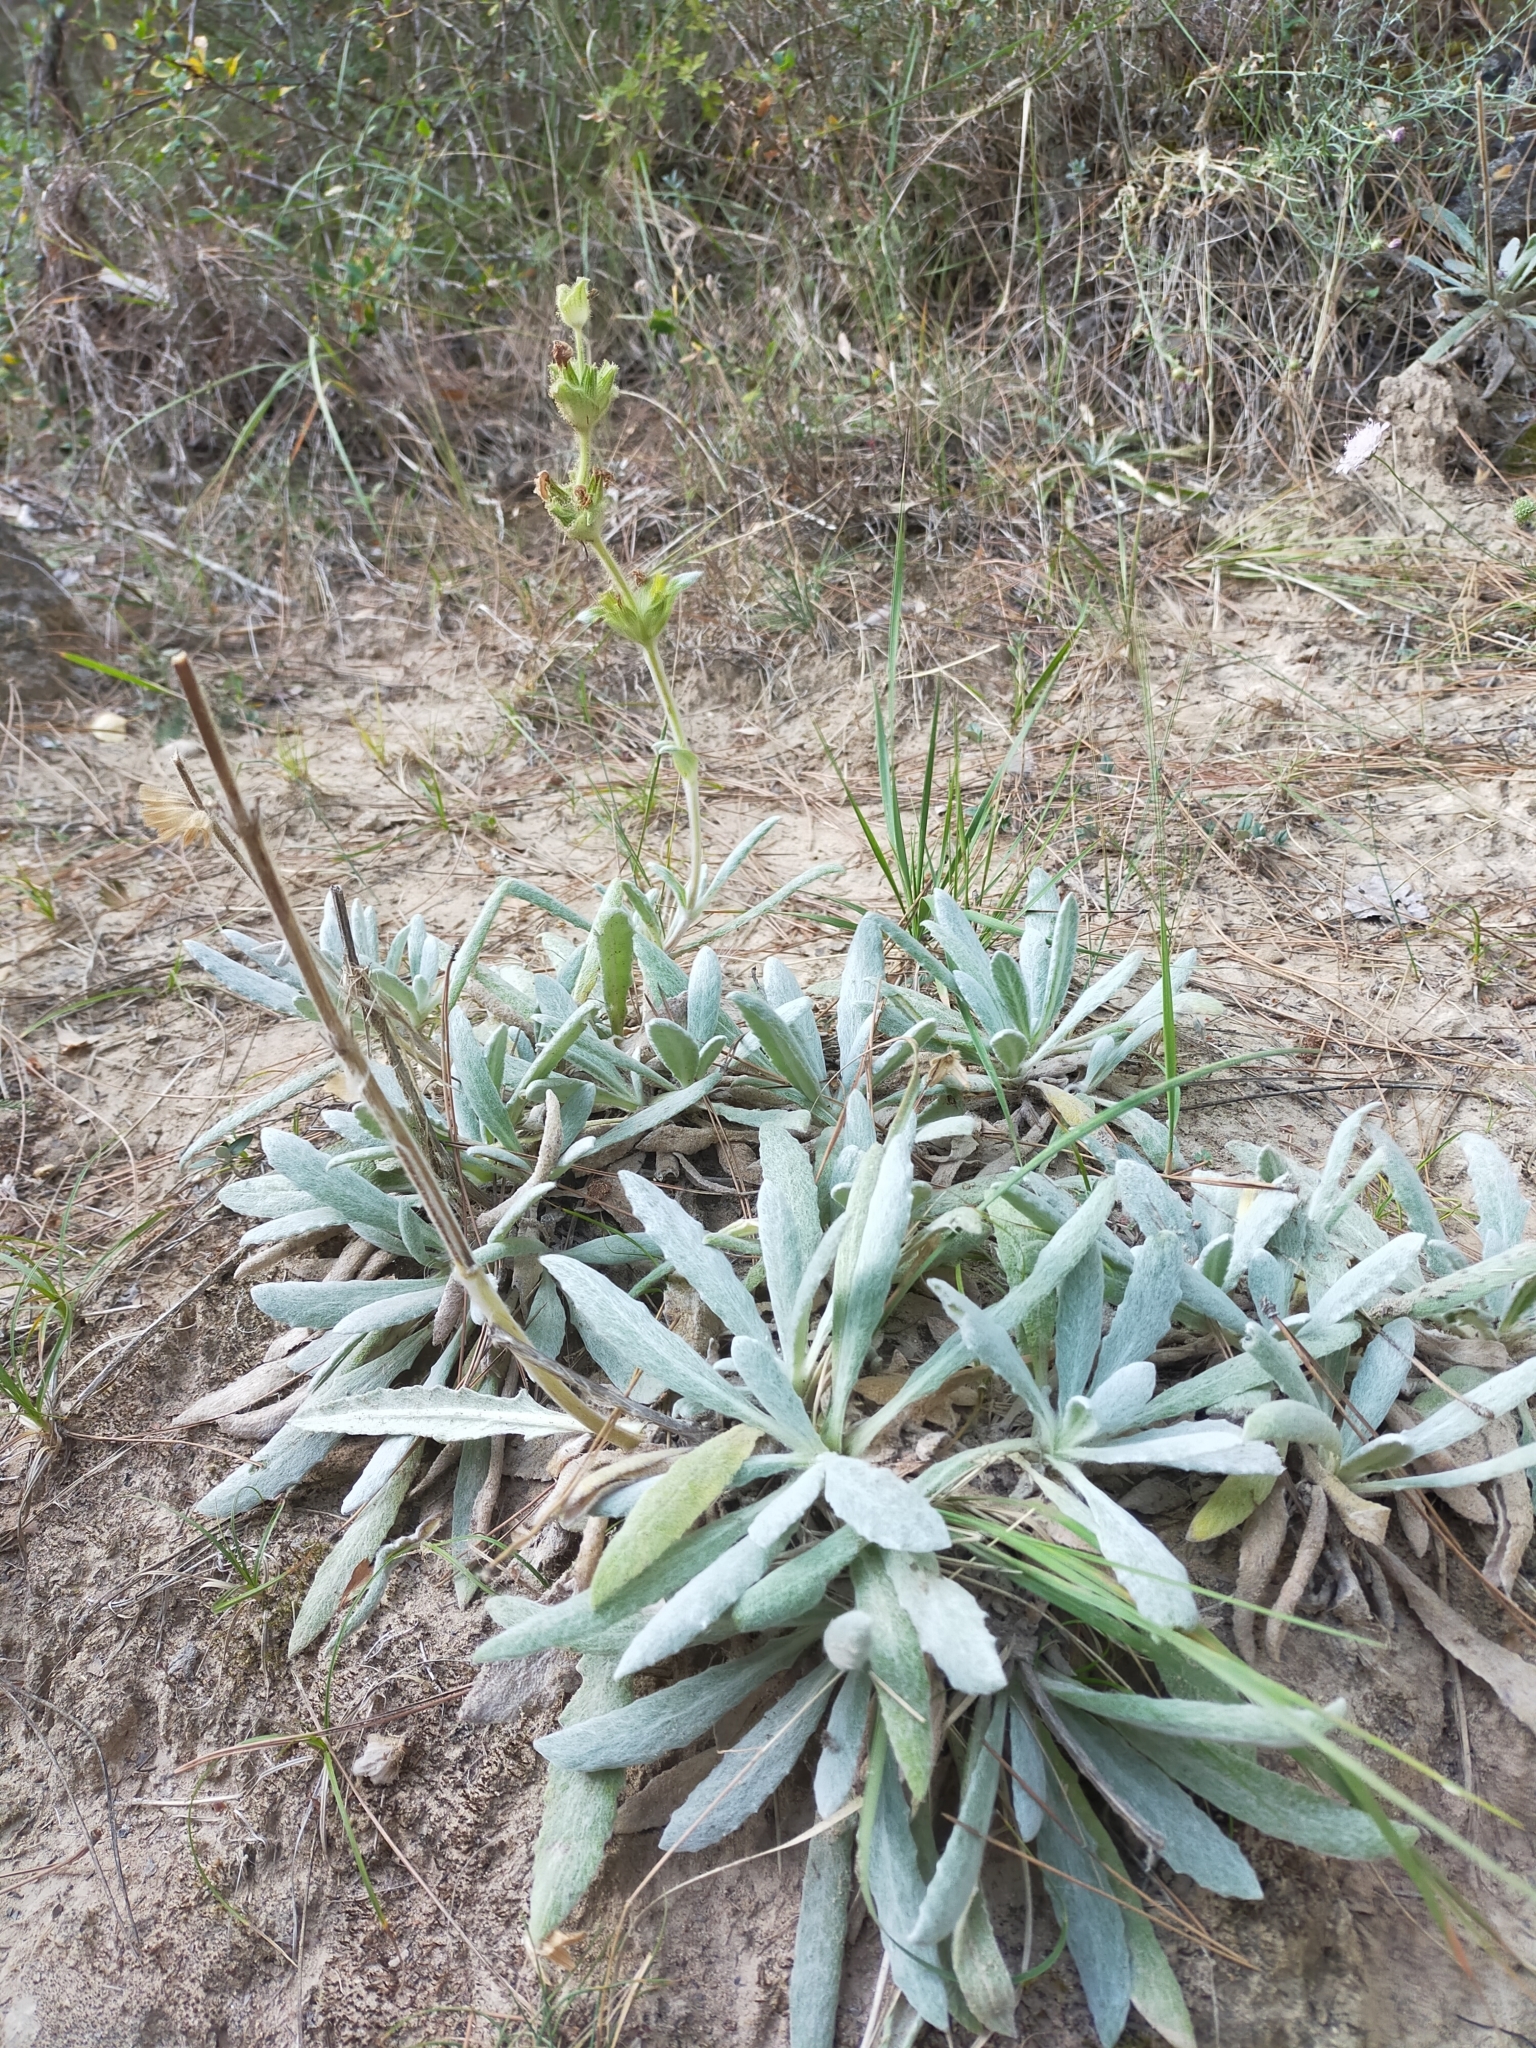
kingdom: Plantae
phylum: Tracheophyta
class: Magnoliopsida
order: Lamiales
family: Lamiaceae
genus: Salvia
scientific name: Salvia phlomoides
